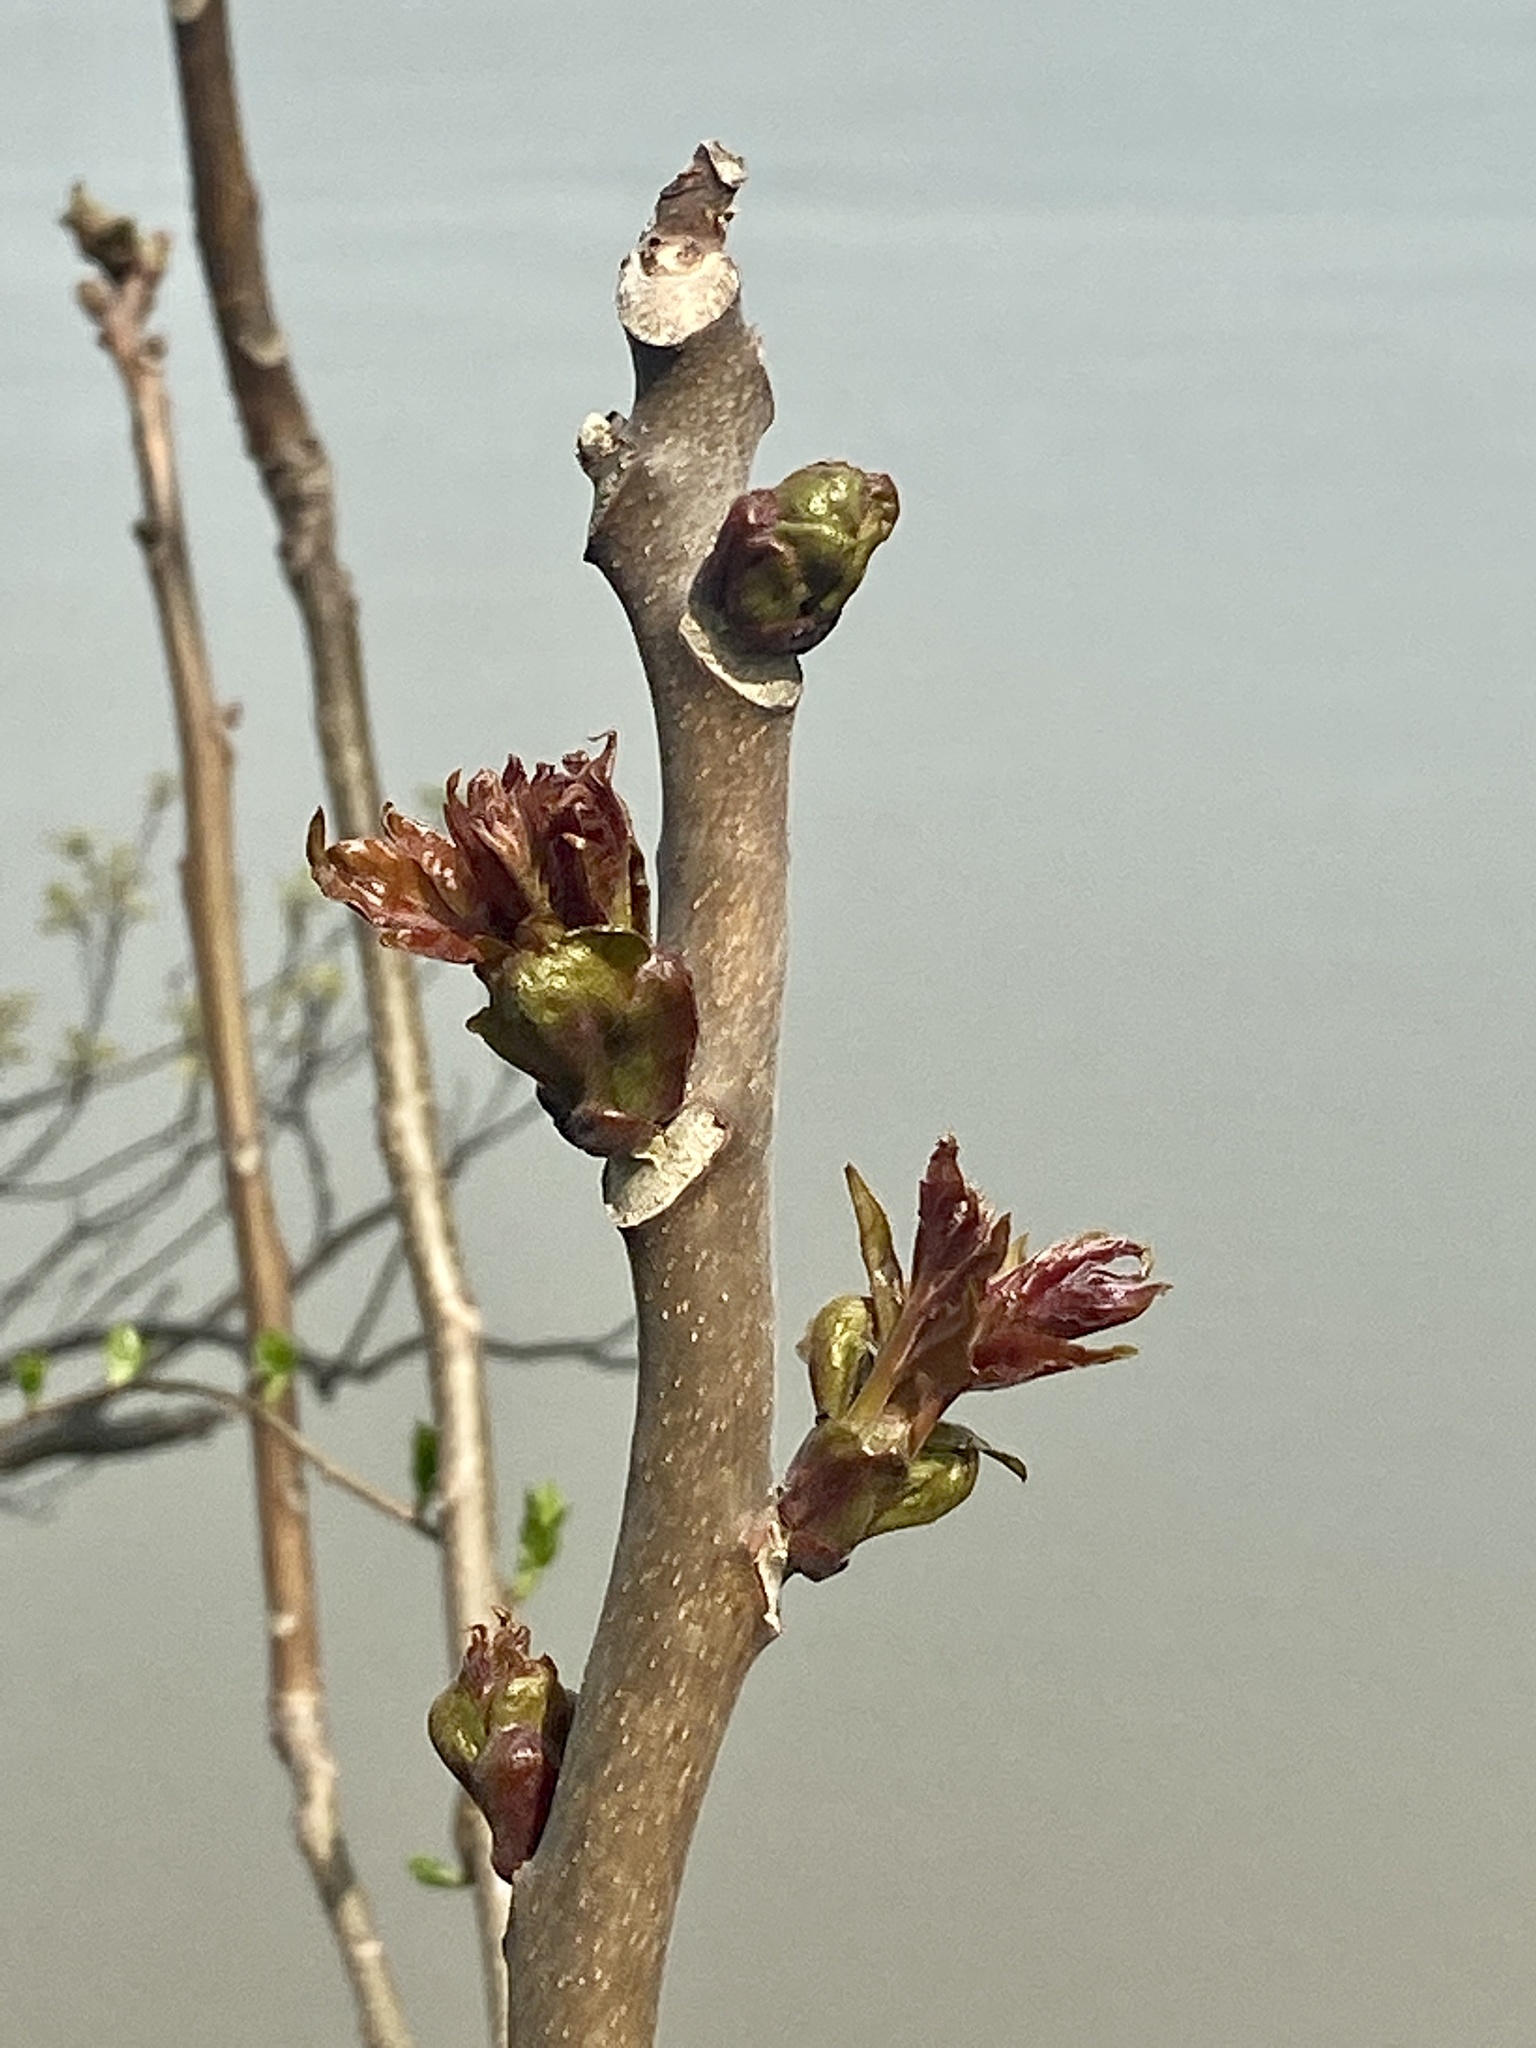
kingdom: Plantae
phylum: Tracheophyta
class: Magnoliopsida
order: Sapindales
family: Simaroubaceae
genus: Ailanthus
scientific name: Ailanthus altissima
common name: Tree-of-heaven
